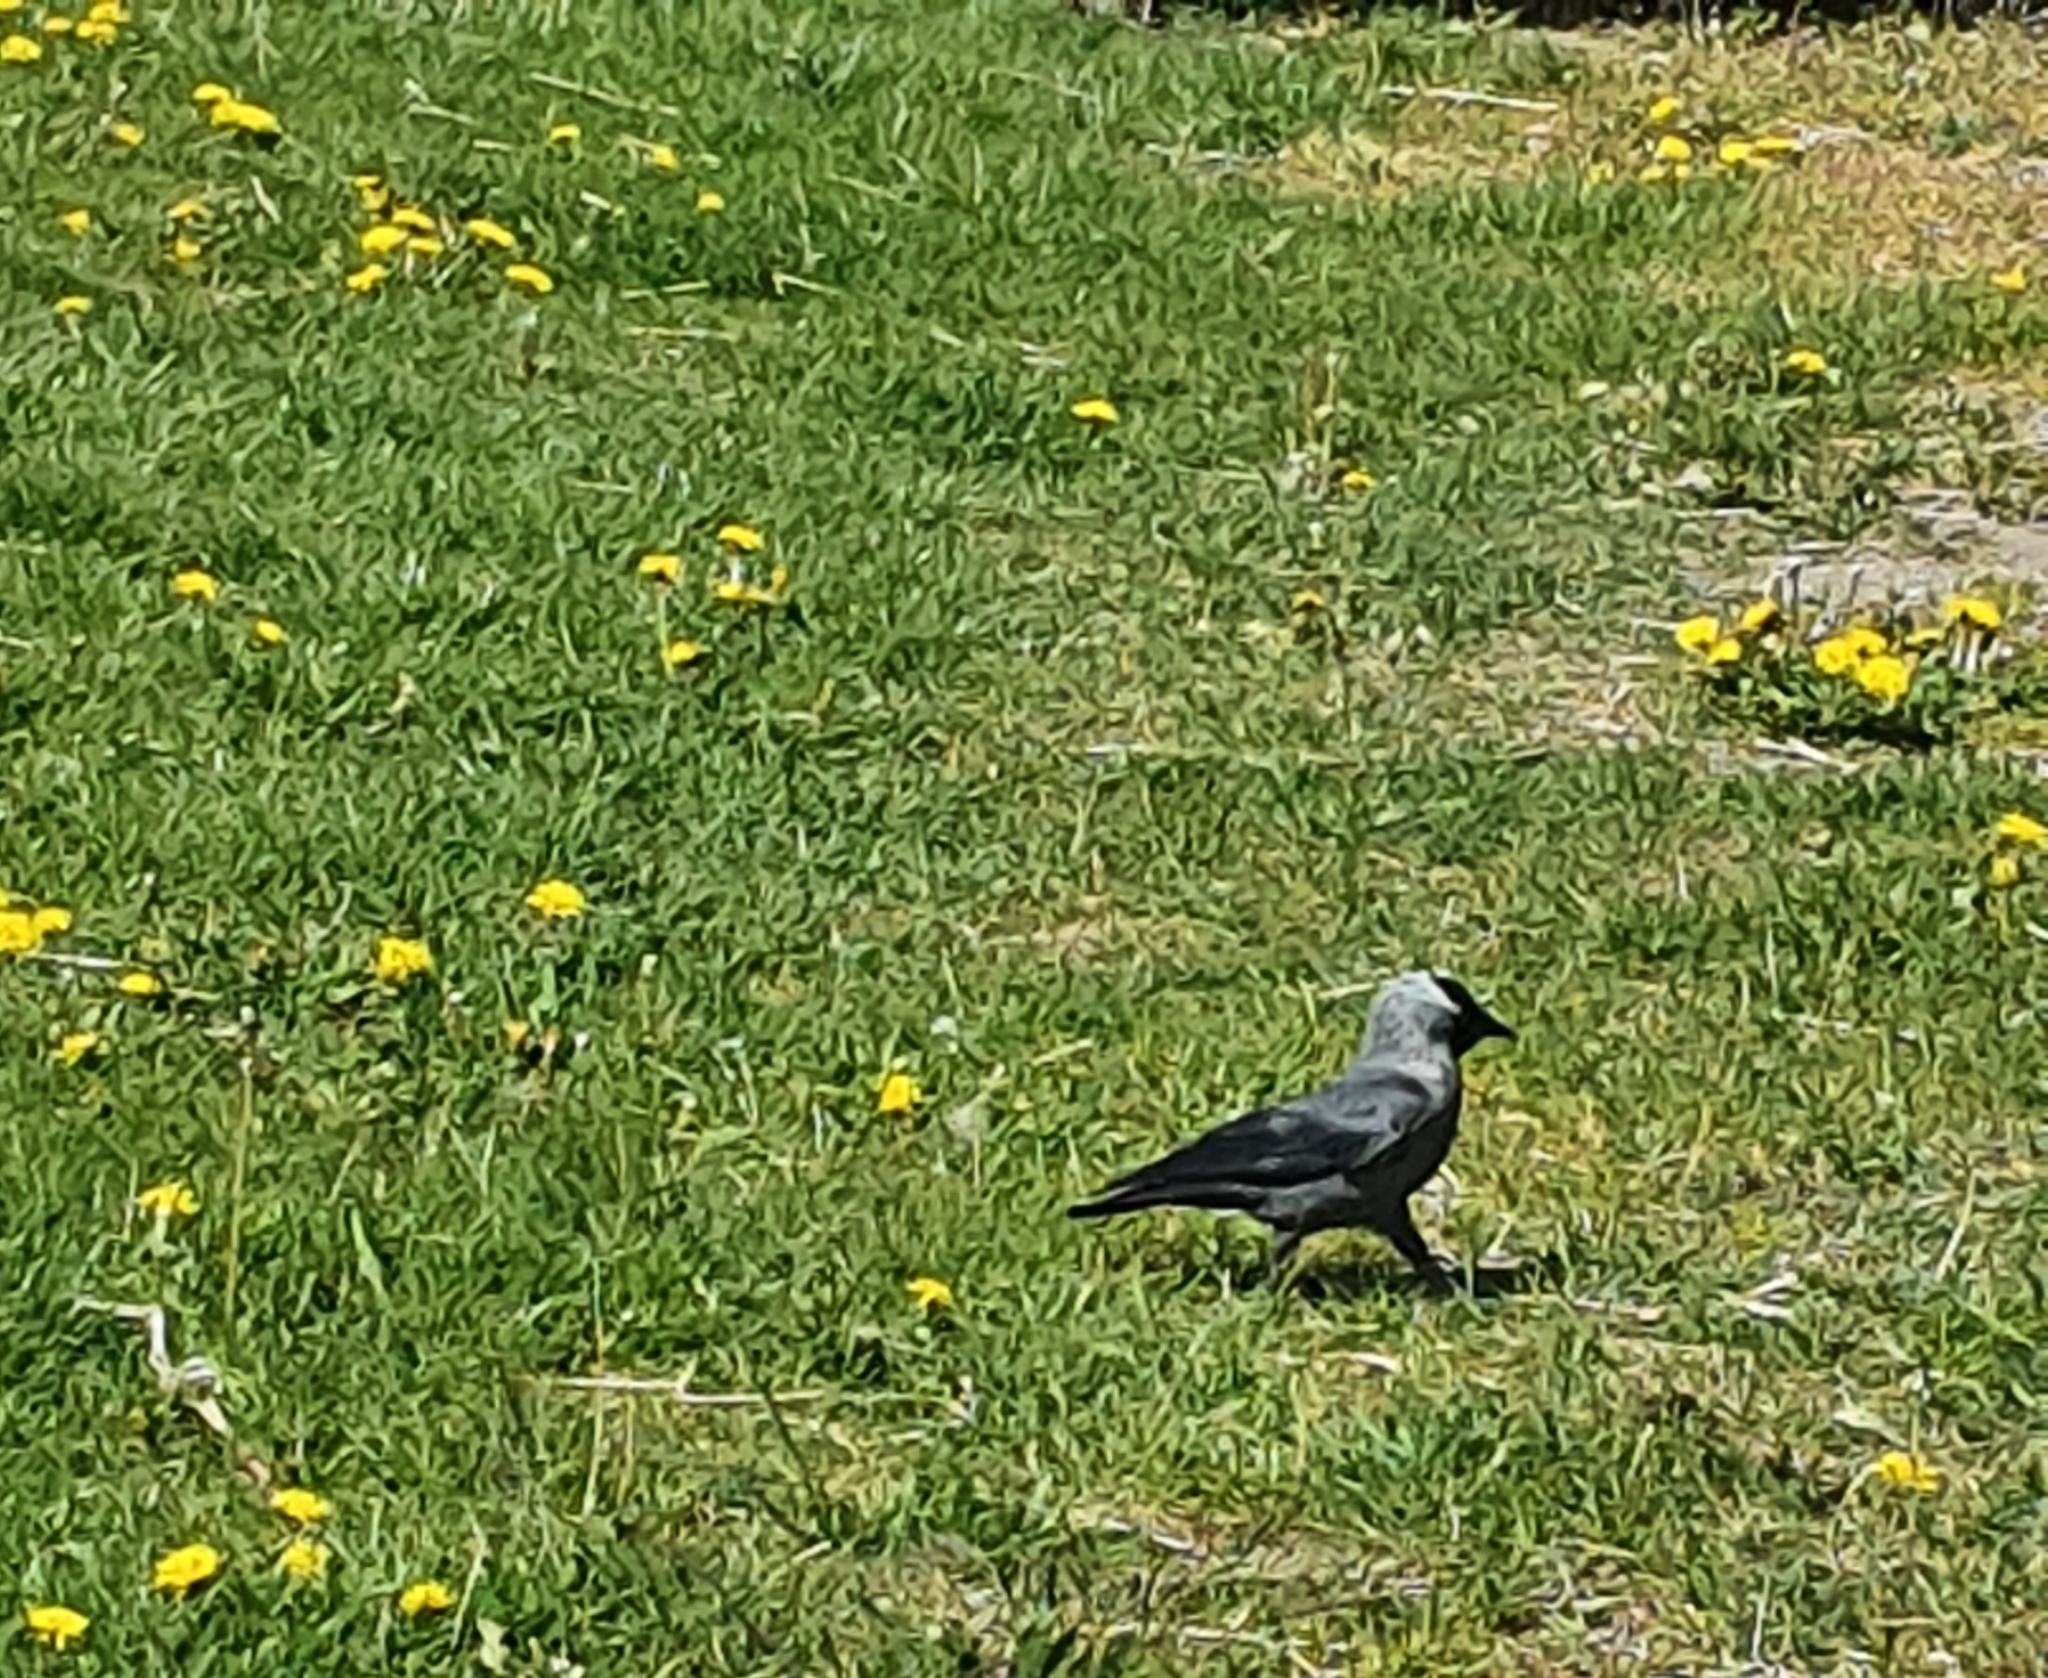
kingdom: Animalia
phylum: Chordata
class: Aves
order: Passeriformes
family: Corvidae
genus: Coloeus
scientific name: Coloeus monedula
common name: Western jackdaw
